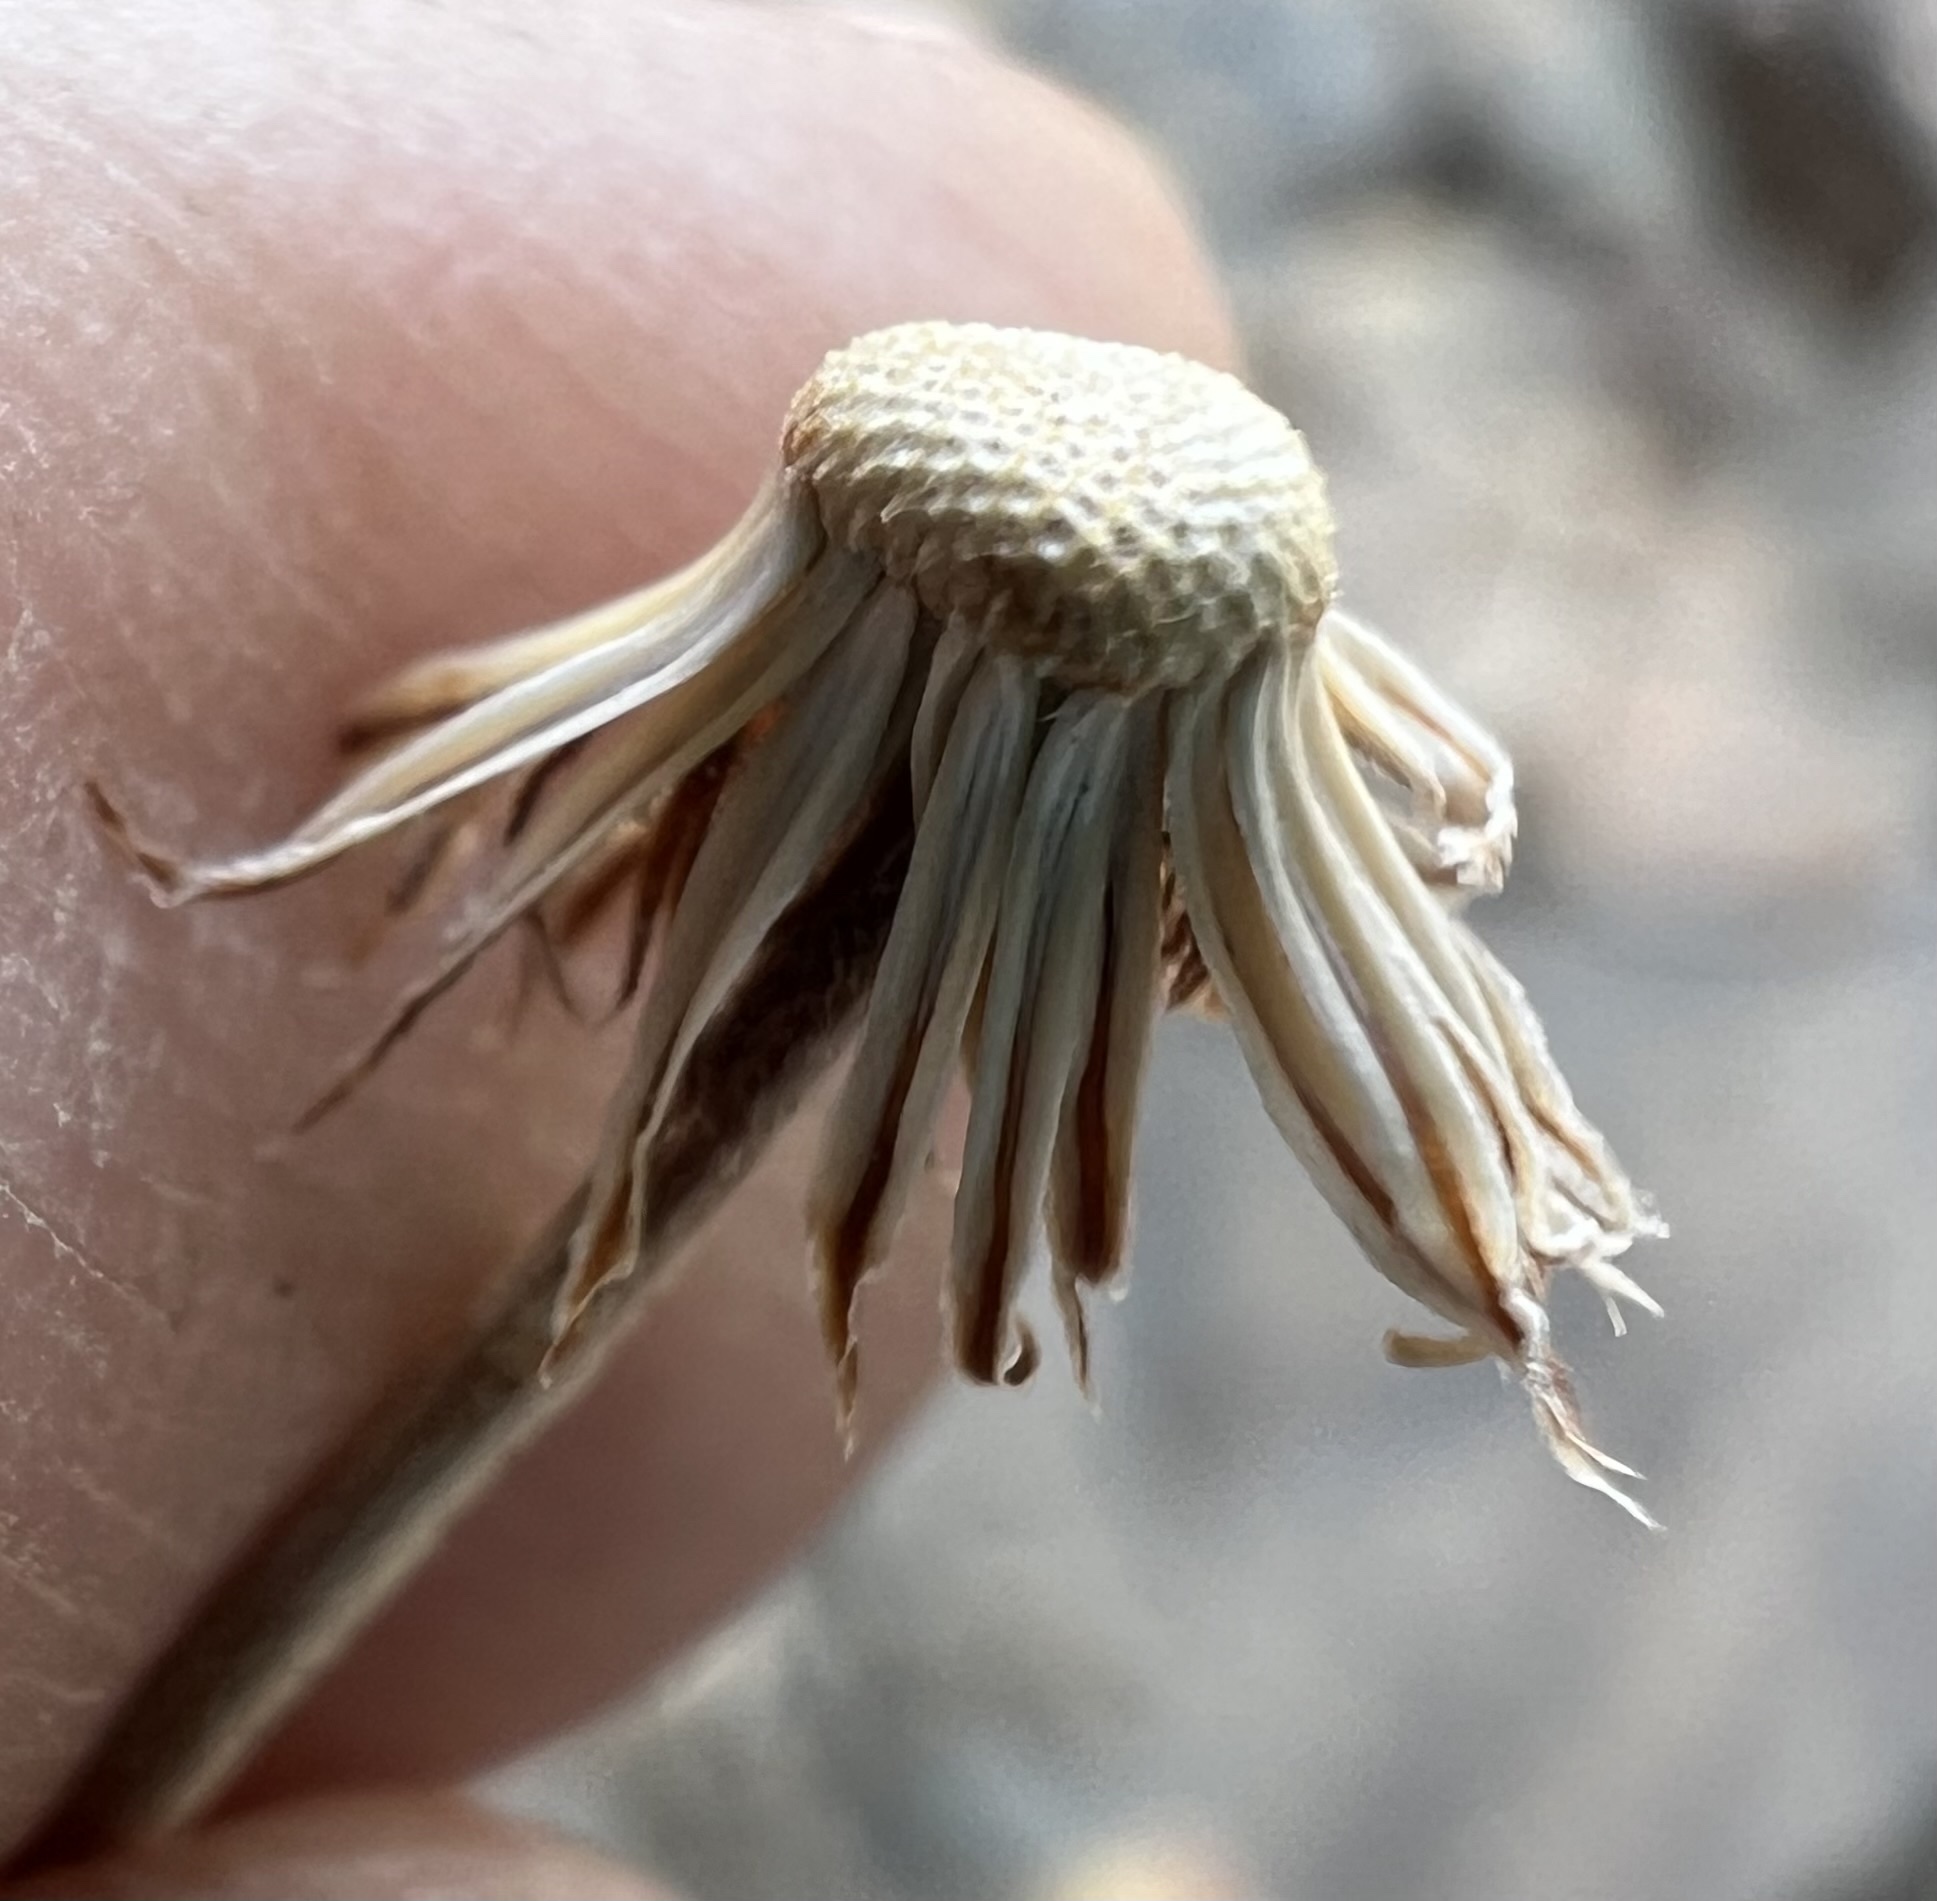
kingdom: Plantae
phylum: Tracheophyta
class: Magnoliopsida
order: Asterales
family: Asteraceae
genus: Erigeron
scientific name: Erigeron breweri
